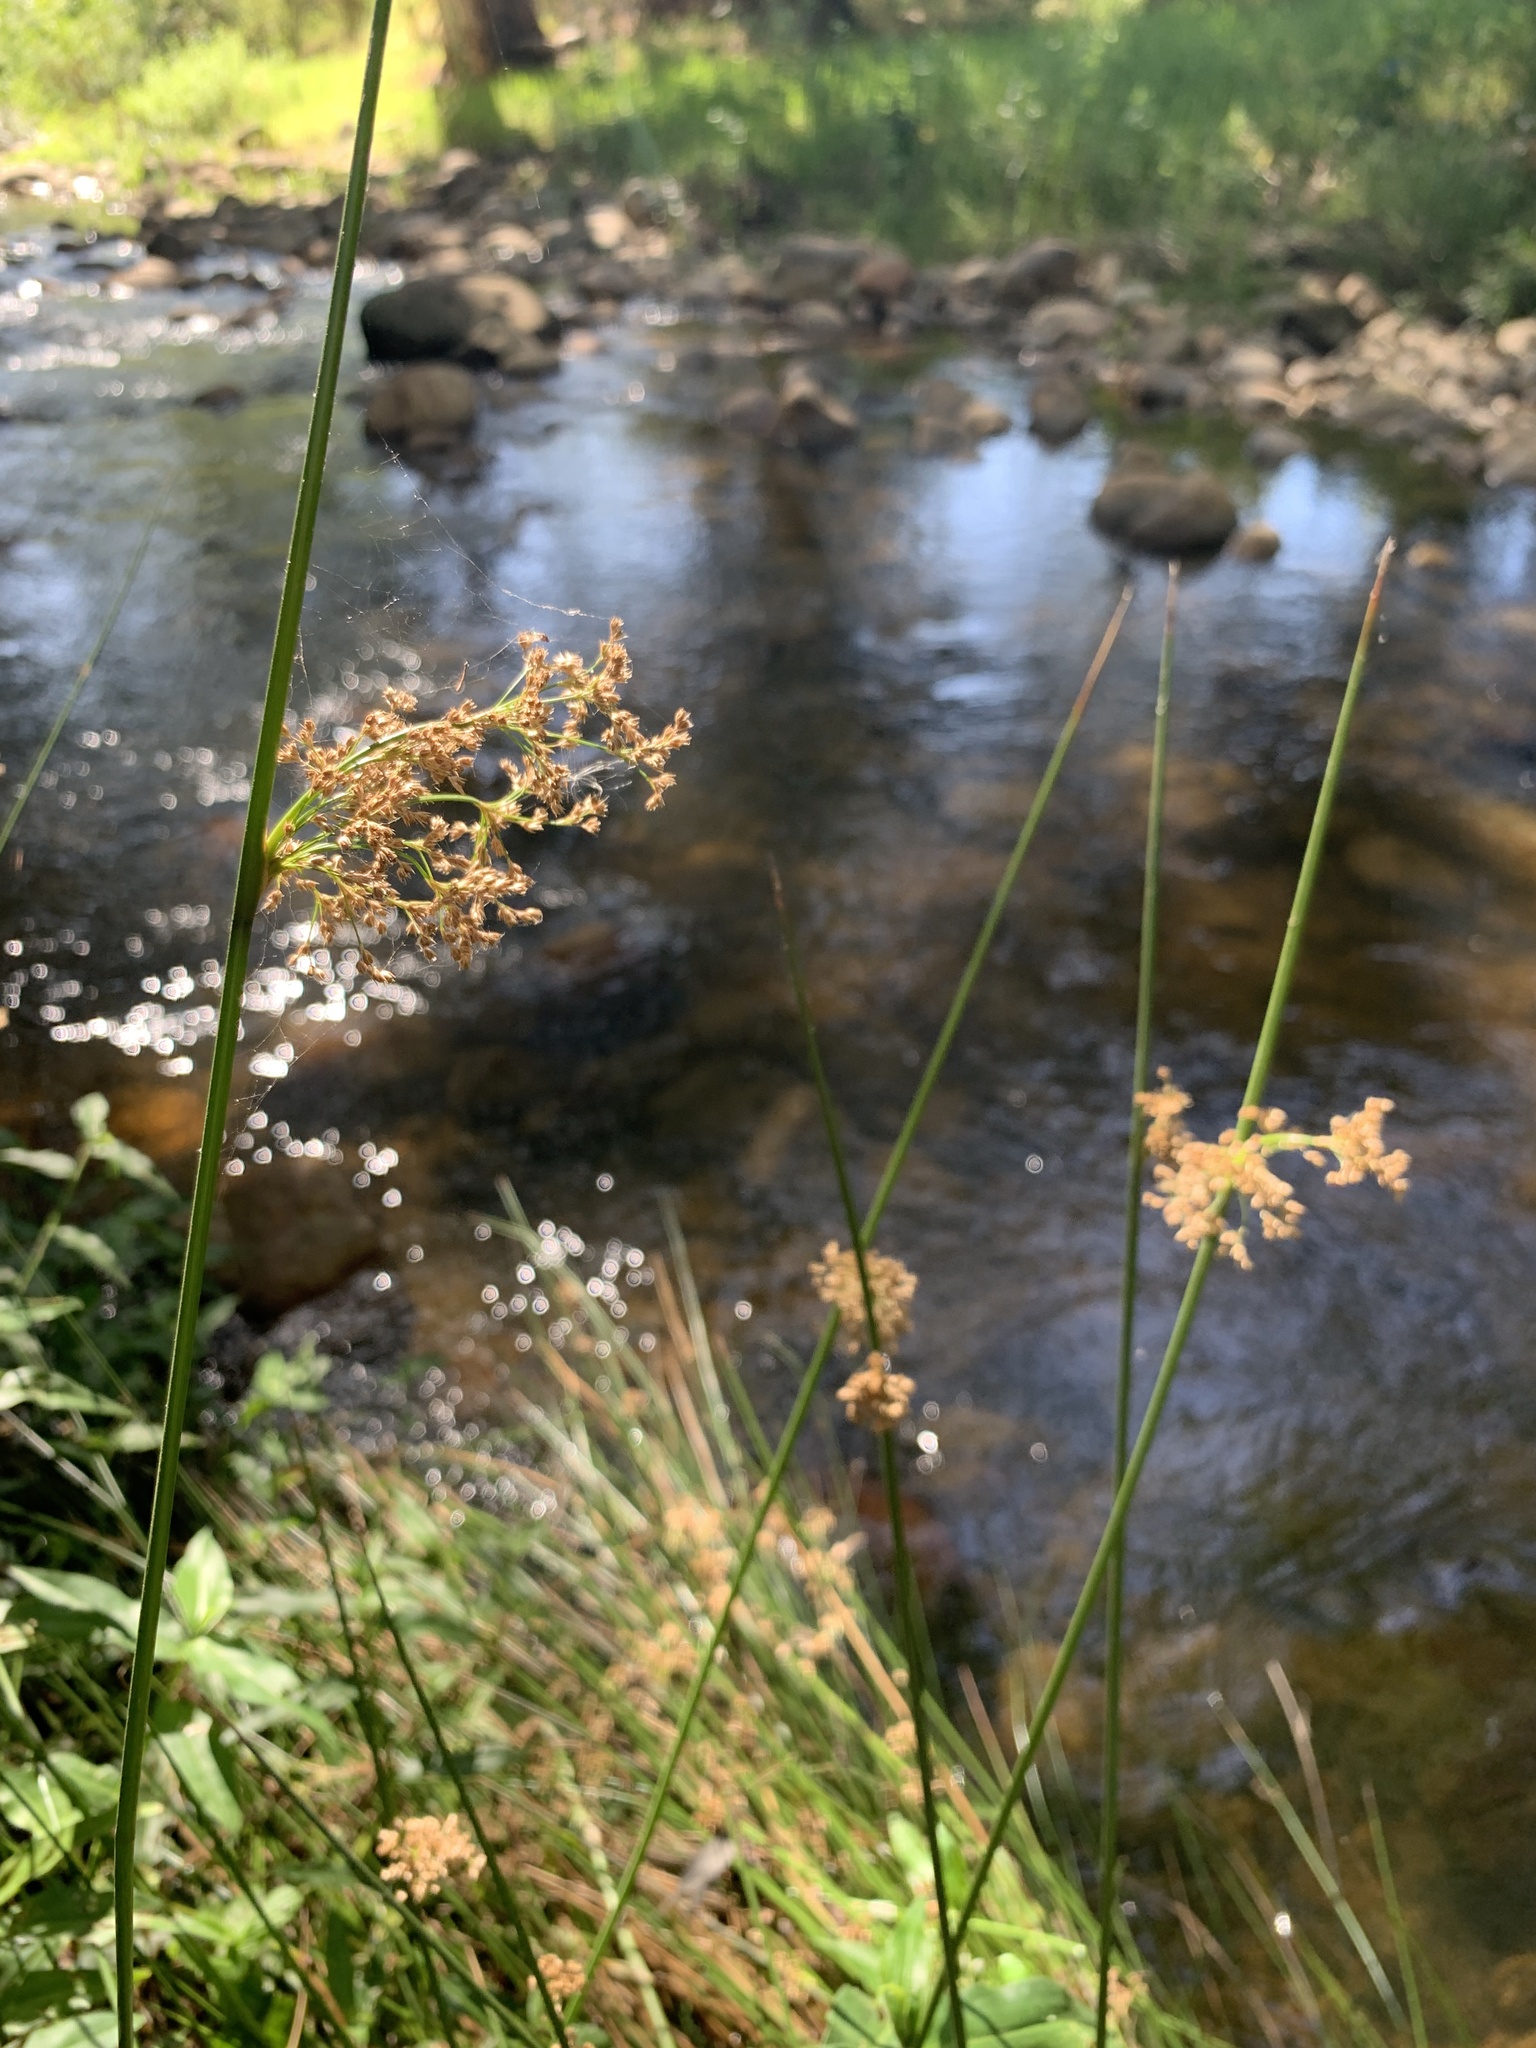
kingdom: Plantae
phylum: Tracheophyta
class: Liliopsida
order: Poales
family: Juncaceae
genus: Juncus
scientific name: Juncus effusus
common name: Soft rush
